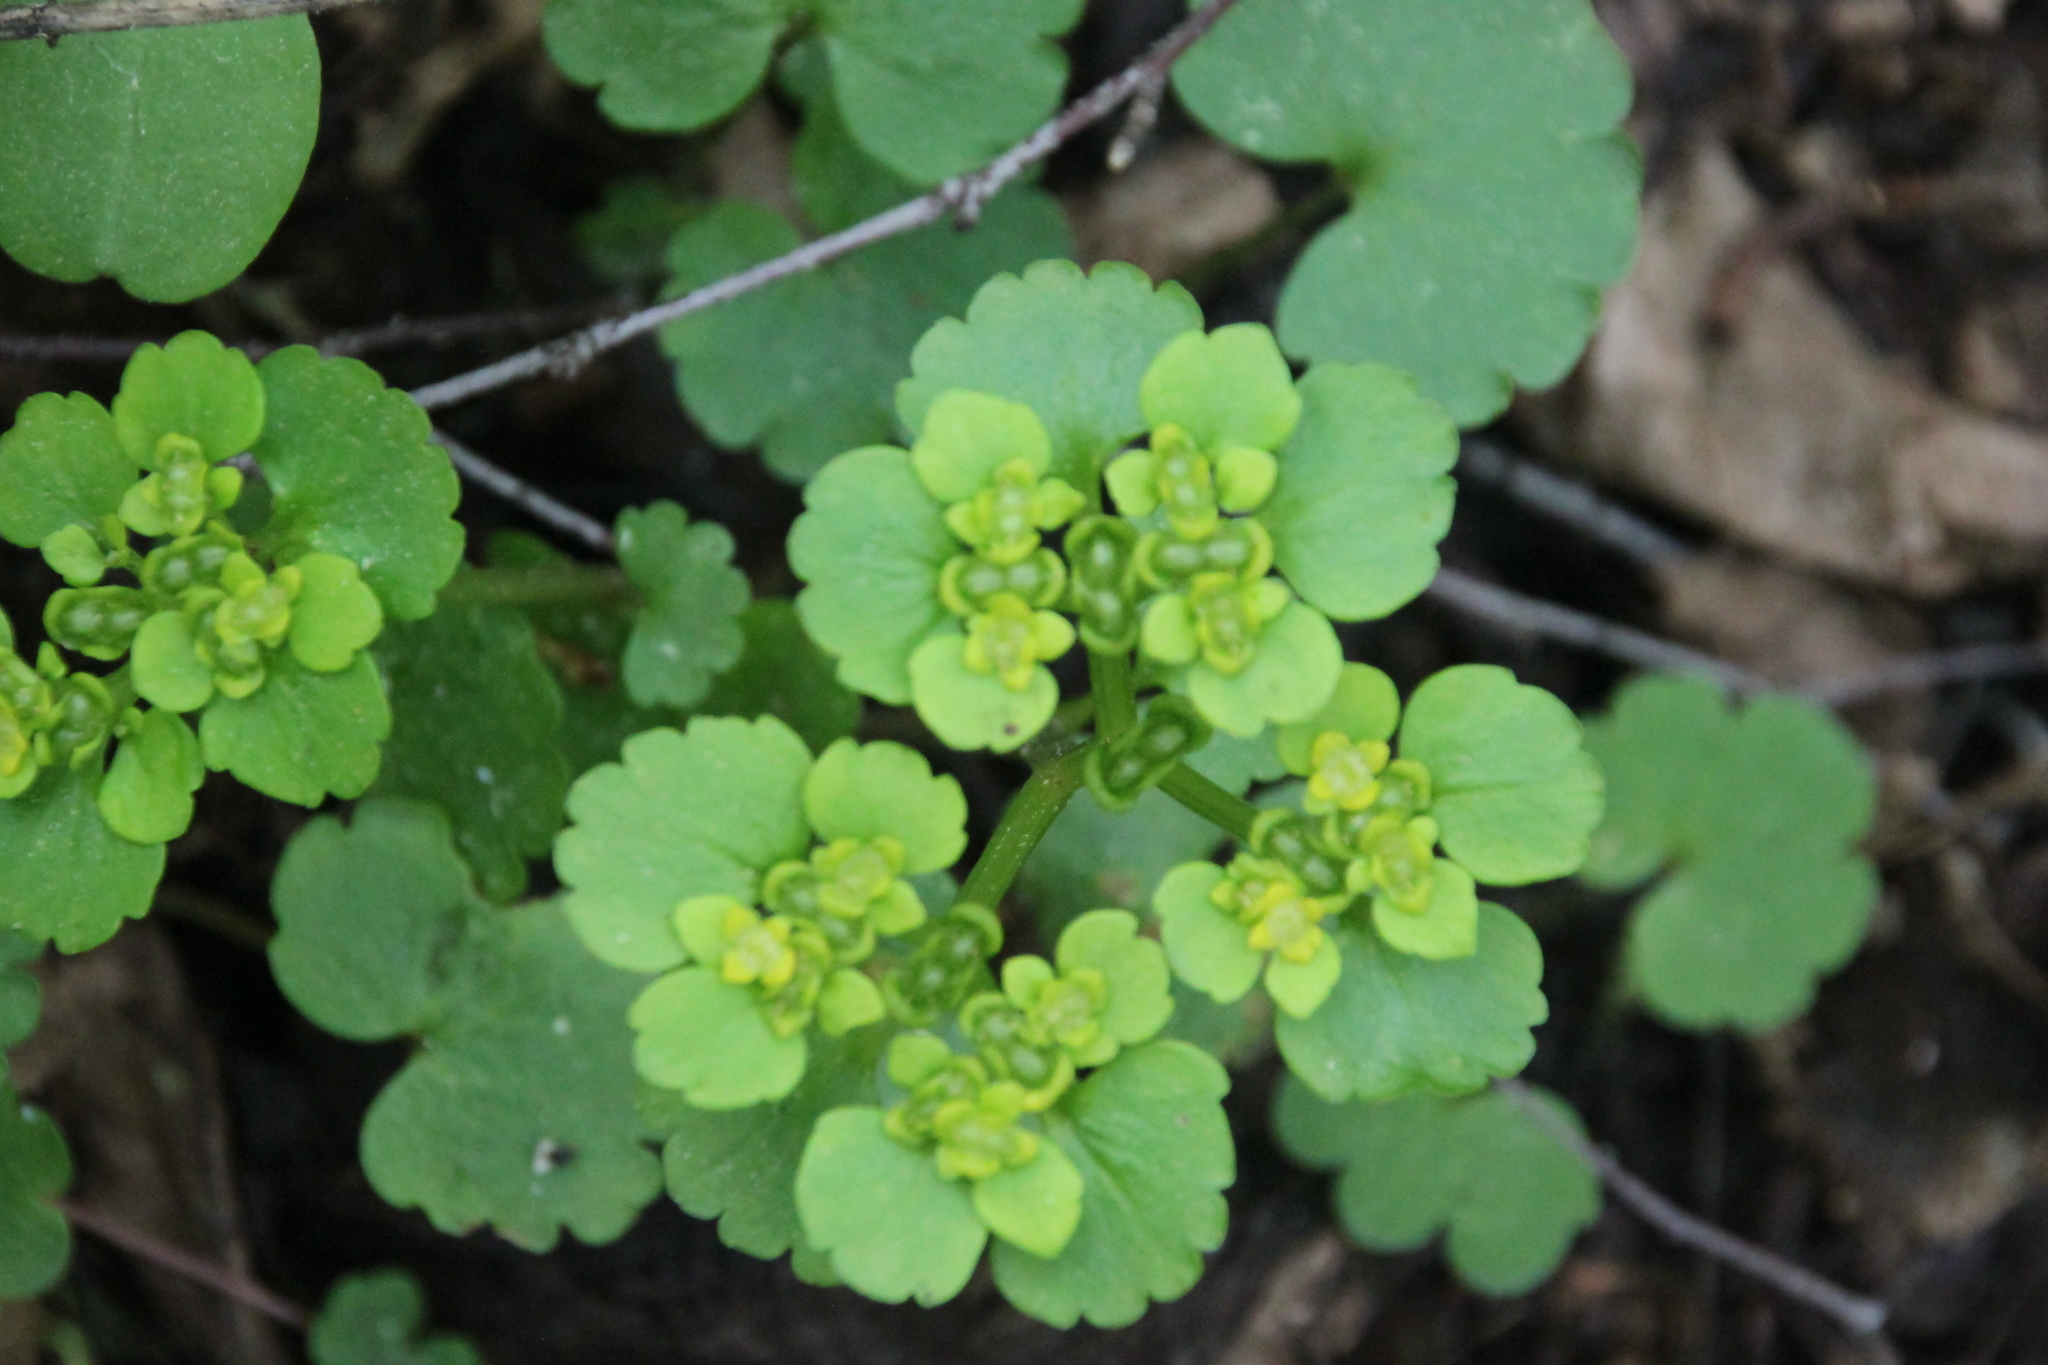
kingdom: Plantae
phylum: Tracheophyta
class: Magnoliopsida
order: Saxifragales
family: Saxifragaceae
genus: Chrysosplenium
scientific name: Chrysosplenium alternifolium
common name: Alternate-leaved golden-saxifrage
